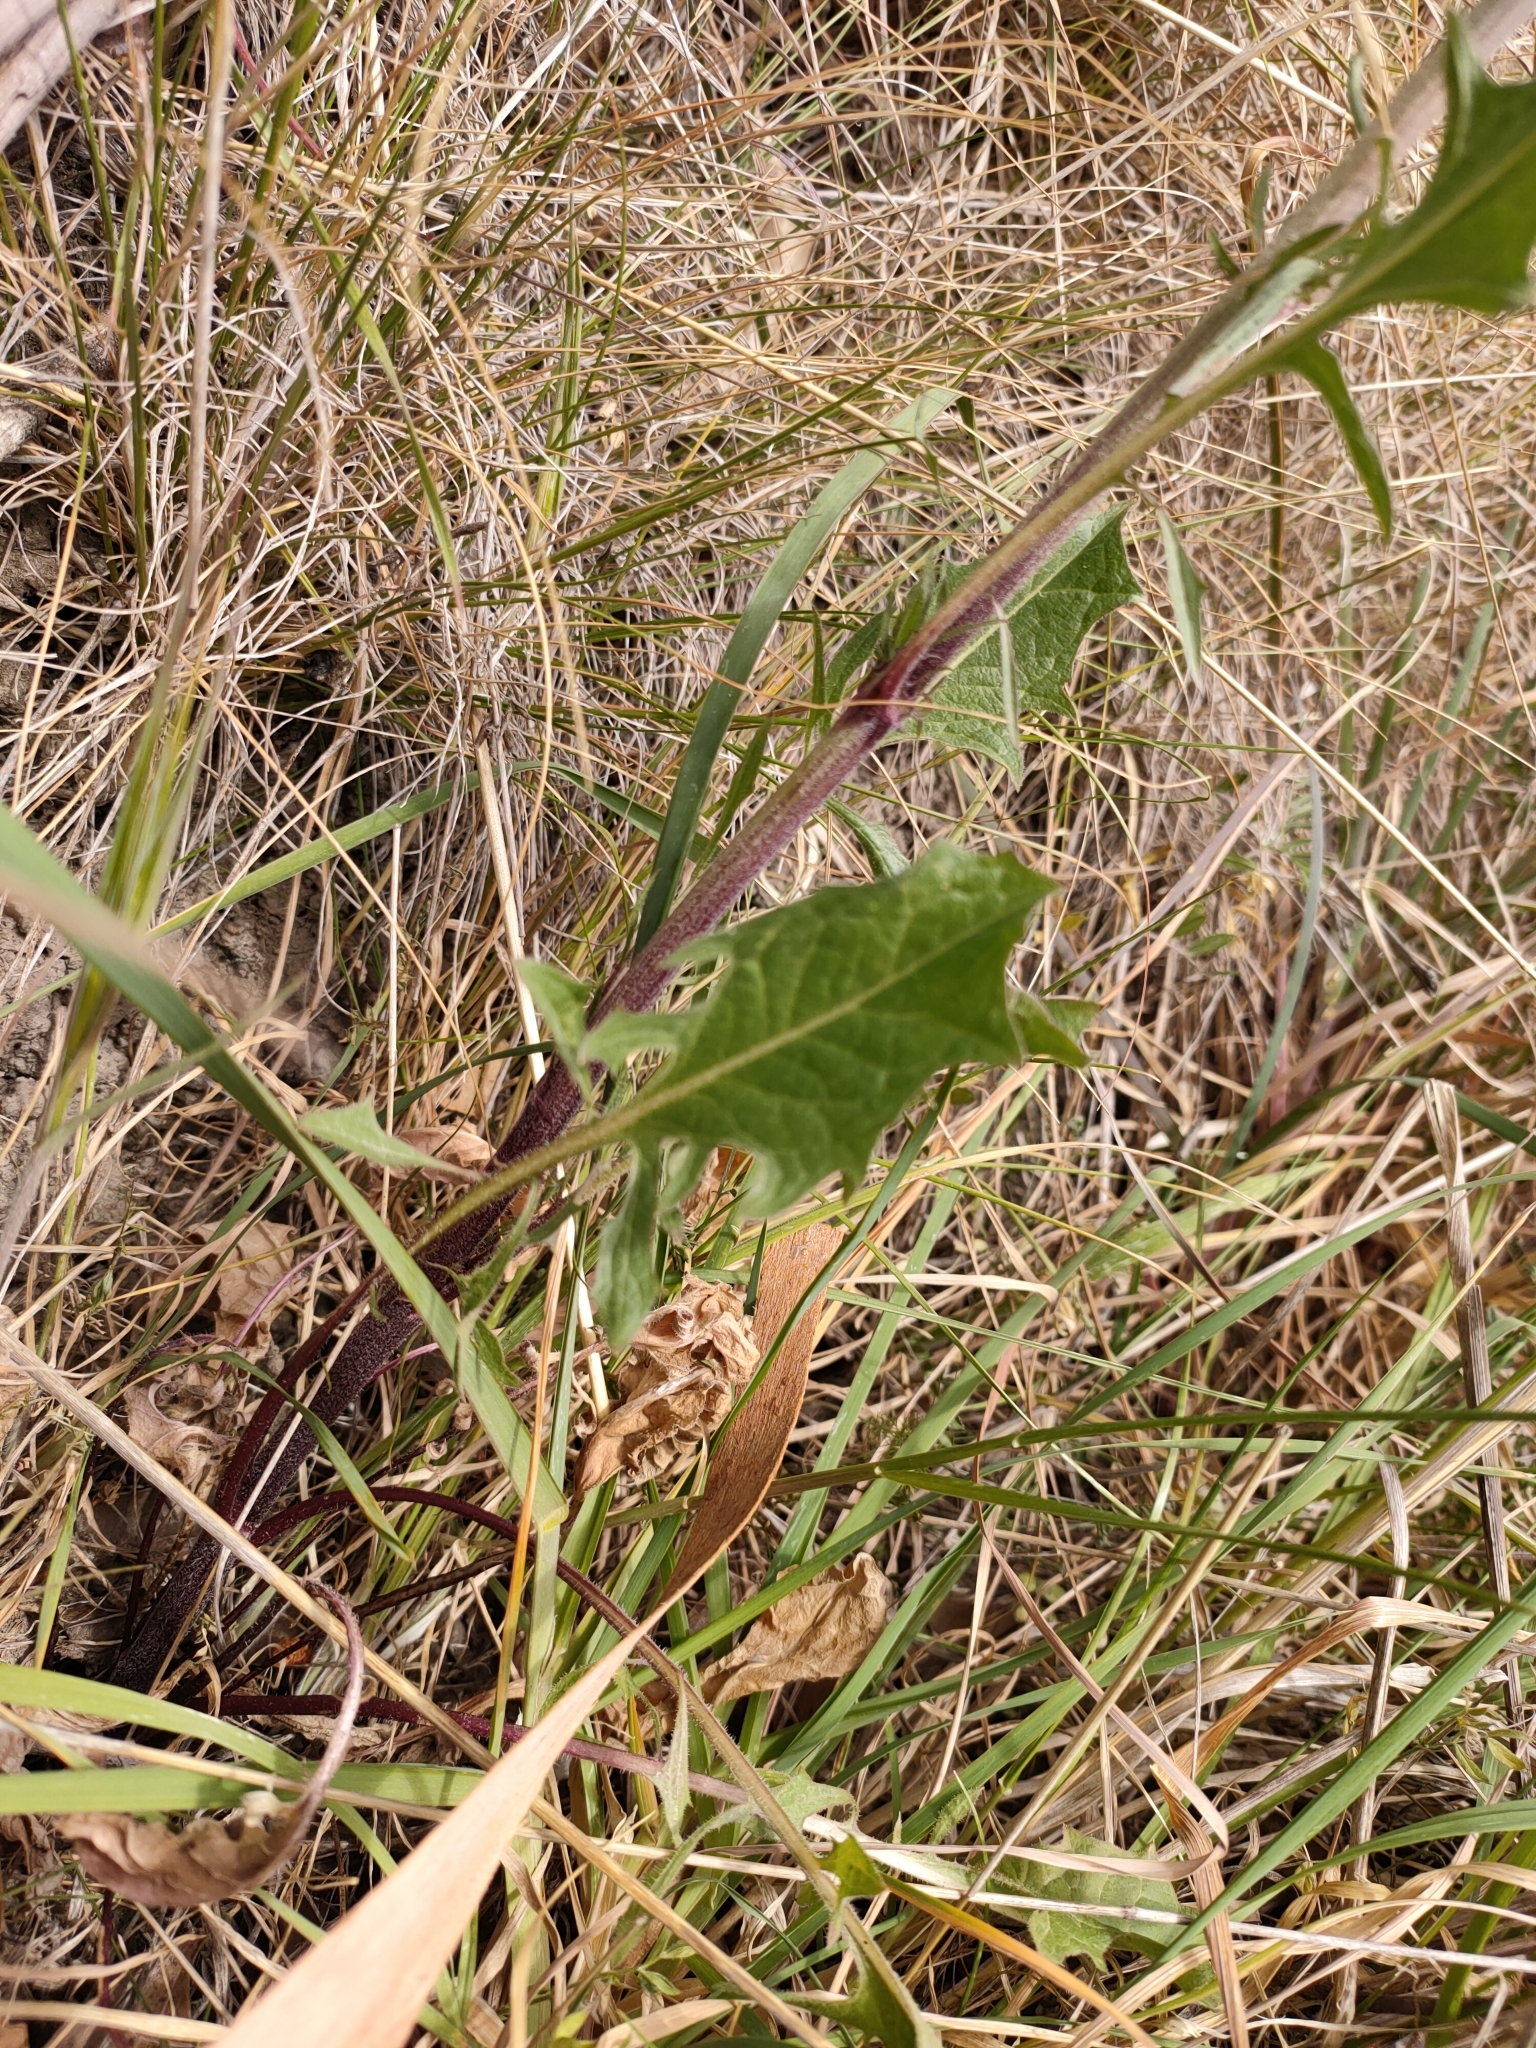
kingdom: Plantae
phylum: Tracheophyta
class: Magnoliopsida
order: Asterales
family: Asteraceae
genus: Crepis
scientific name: Crepis vesicaria
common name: Beaked hawksbeard
